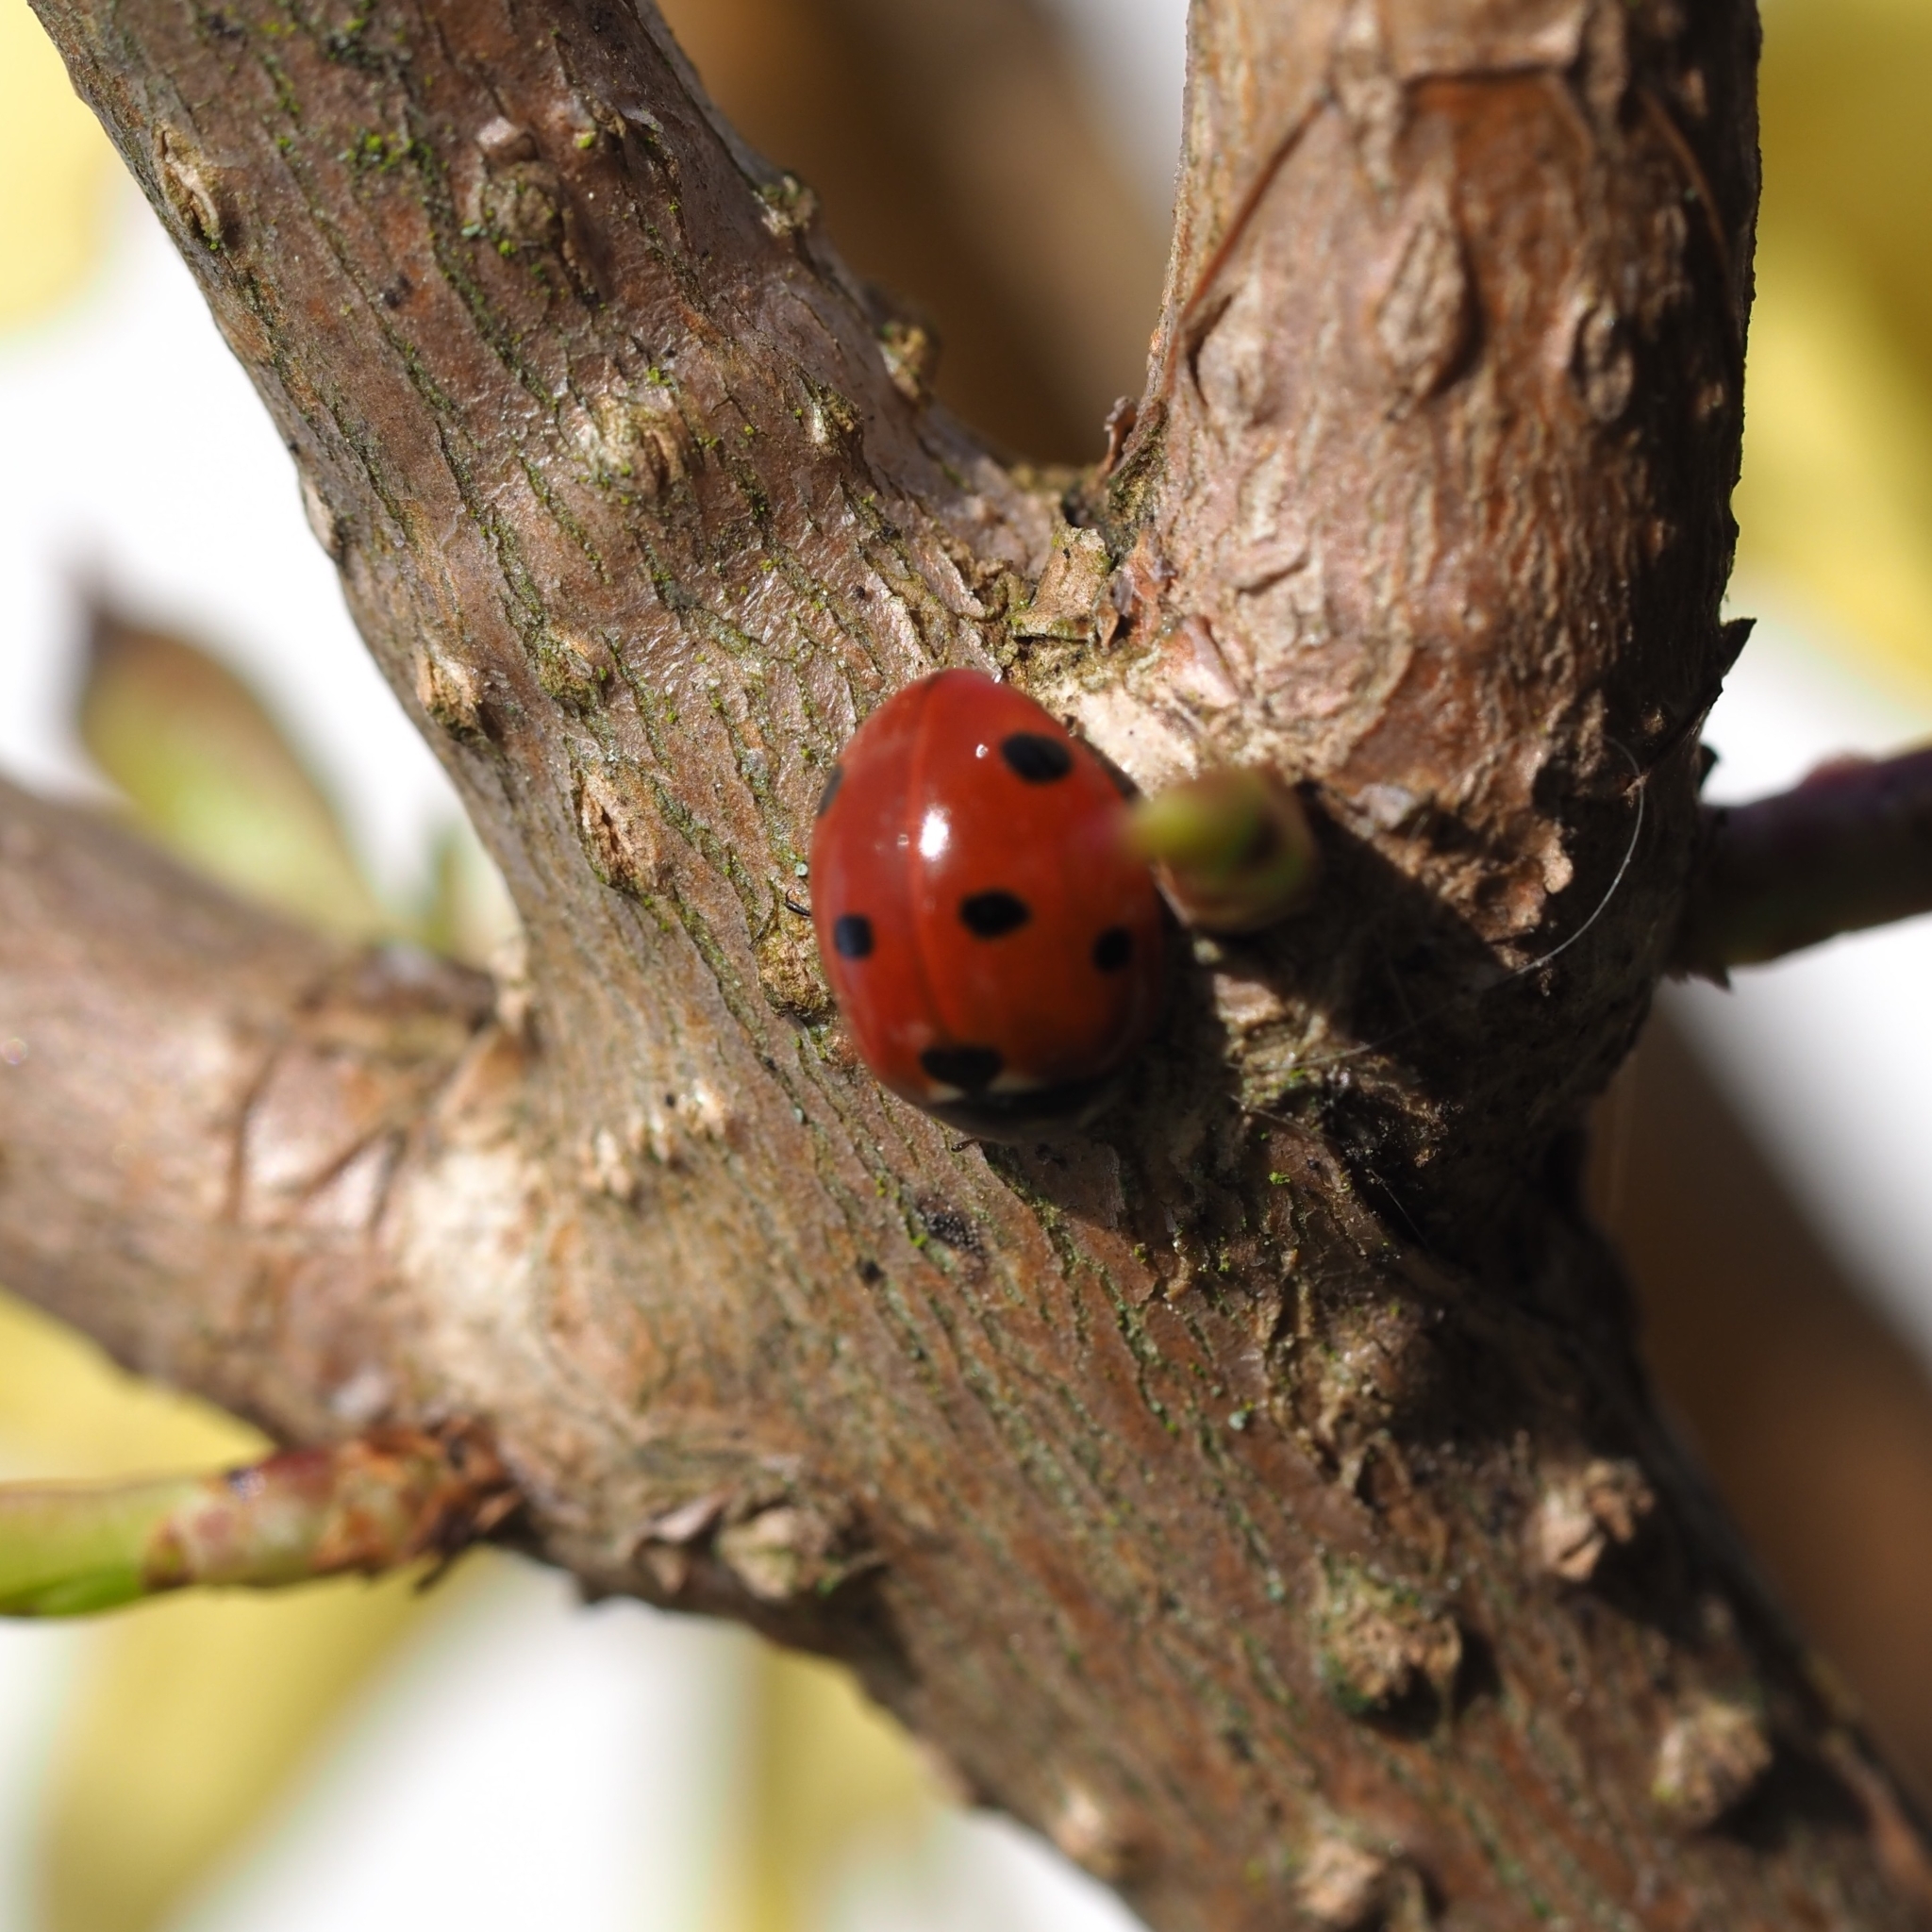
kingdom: Animalia
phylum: Arthropoda
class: Insecta
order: Coleoptera
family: Coccinellidae
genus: Coccinella
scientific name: Coccinella septempunctata
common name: Sevenspotted lady beetle
